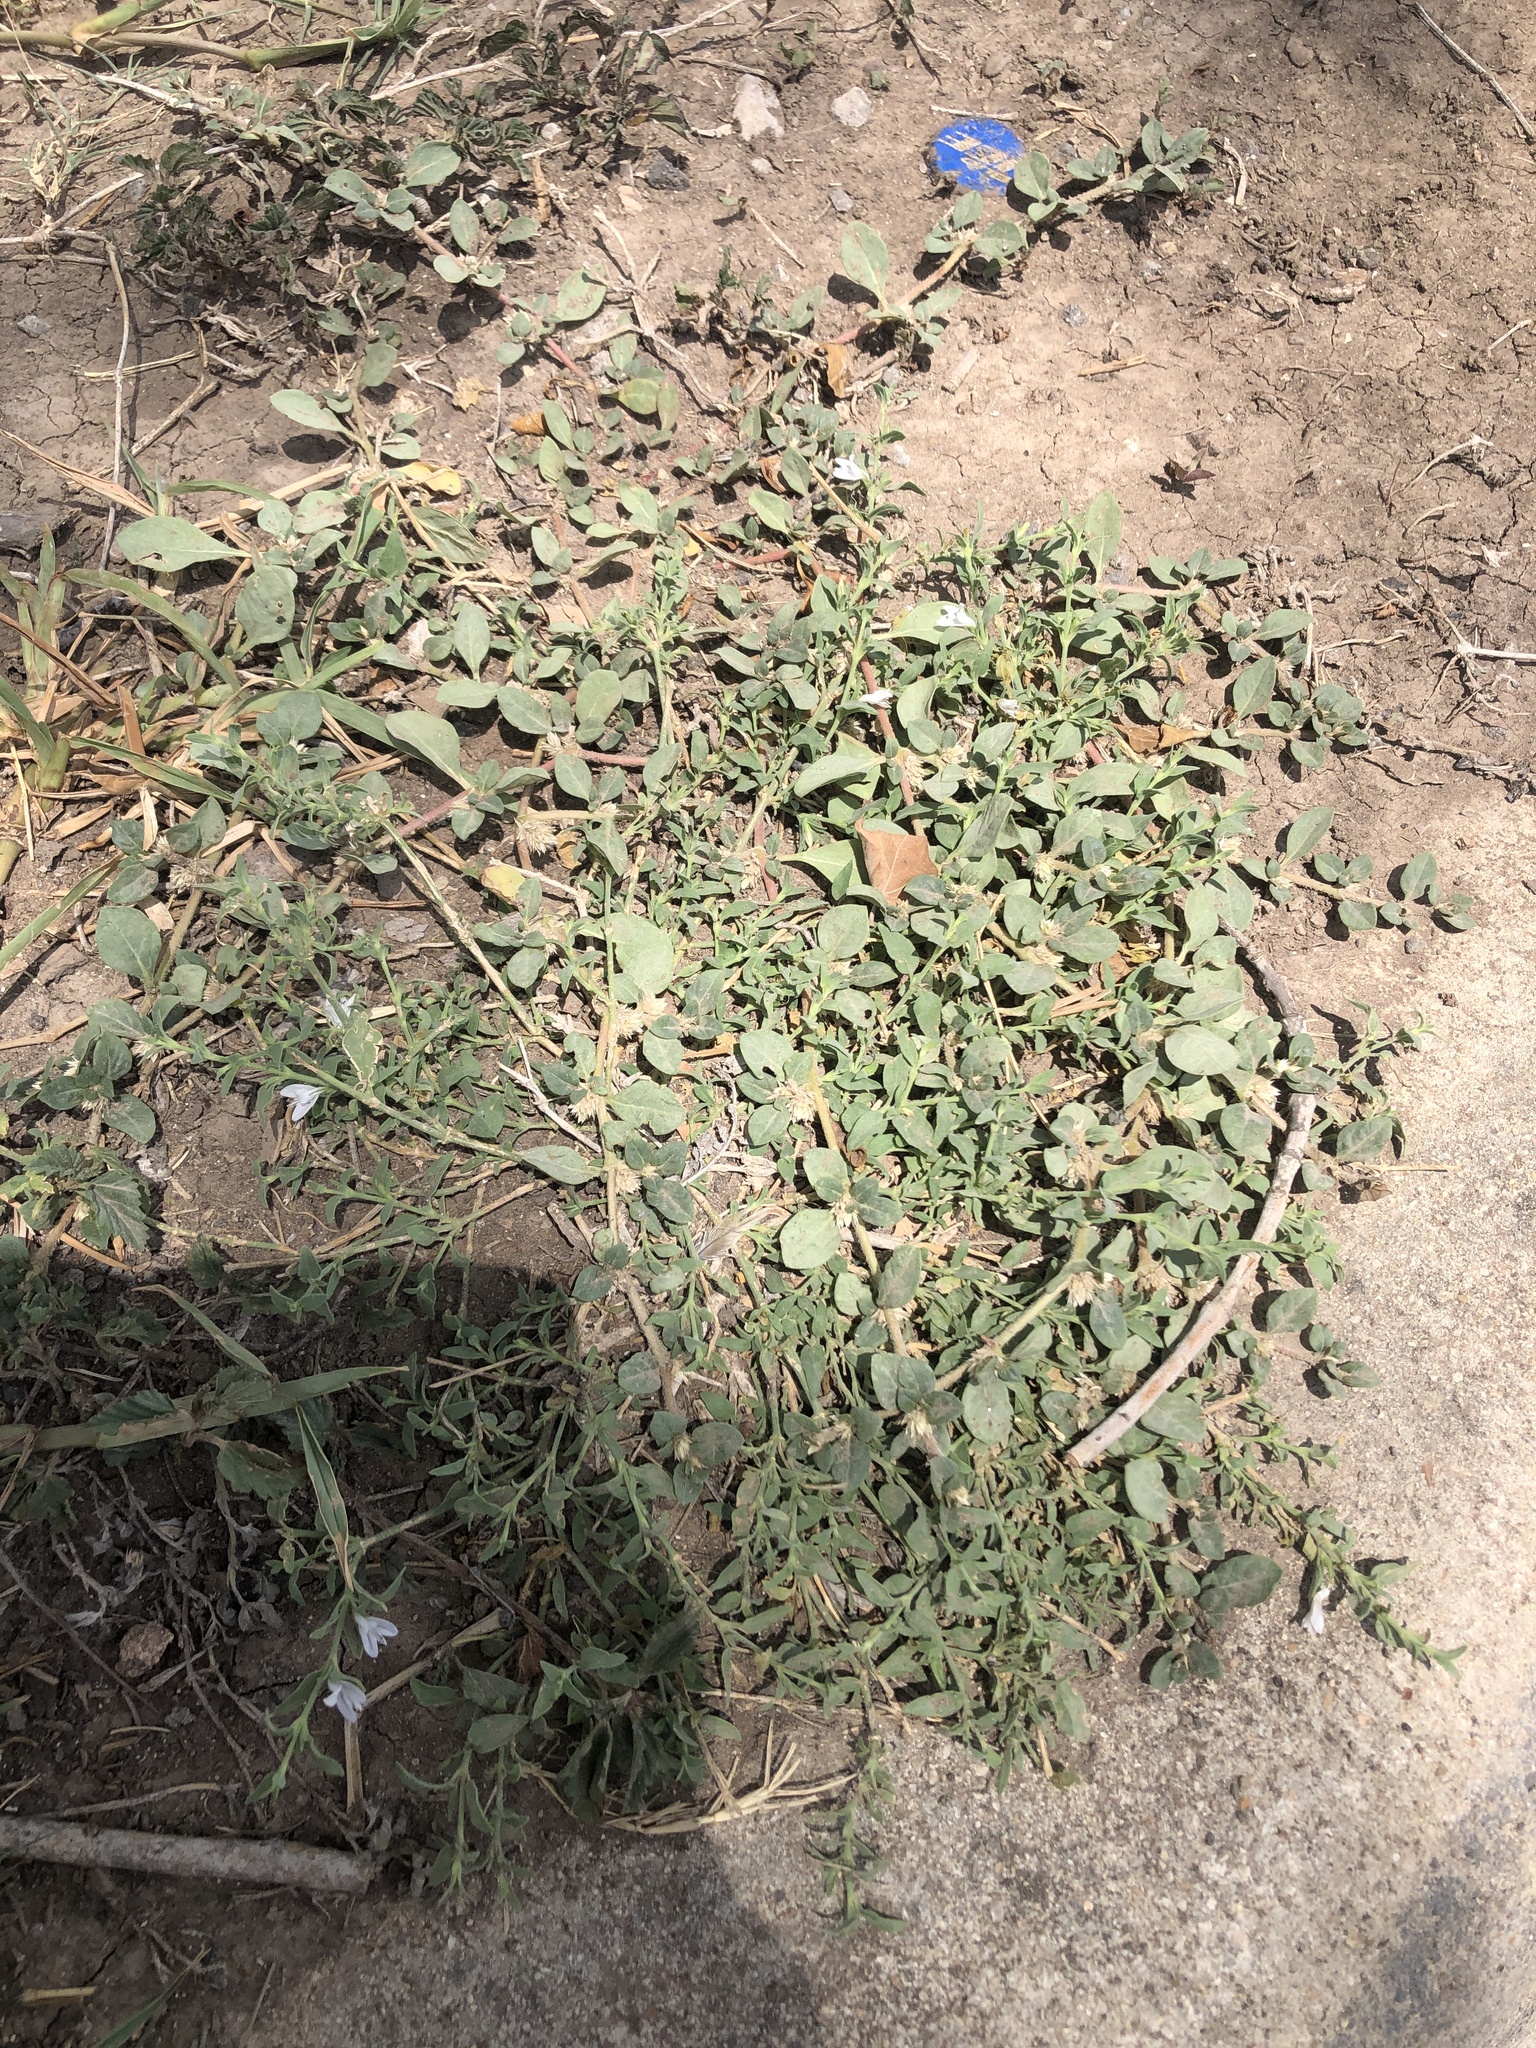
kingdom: Plantae
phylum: Tracheophyta
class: Magnoliopsida
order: Lamiales
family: Acanthaceae
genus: Carlowrightia
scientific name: Carlowrightia texana
